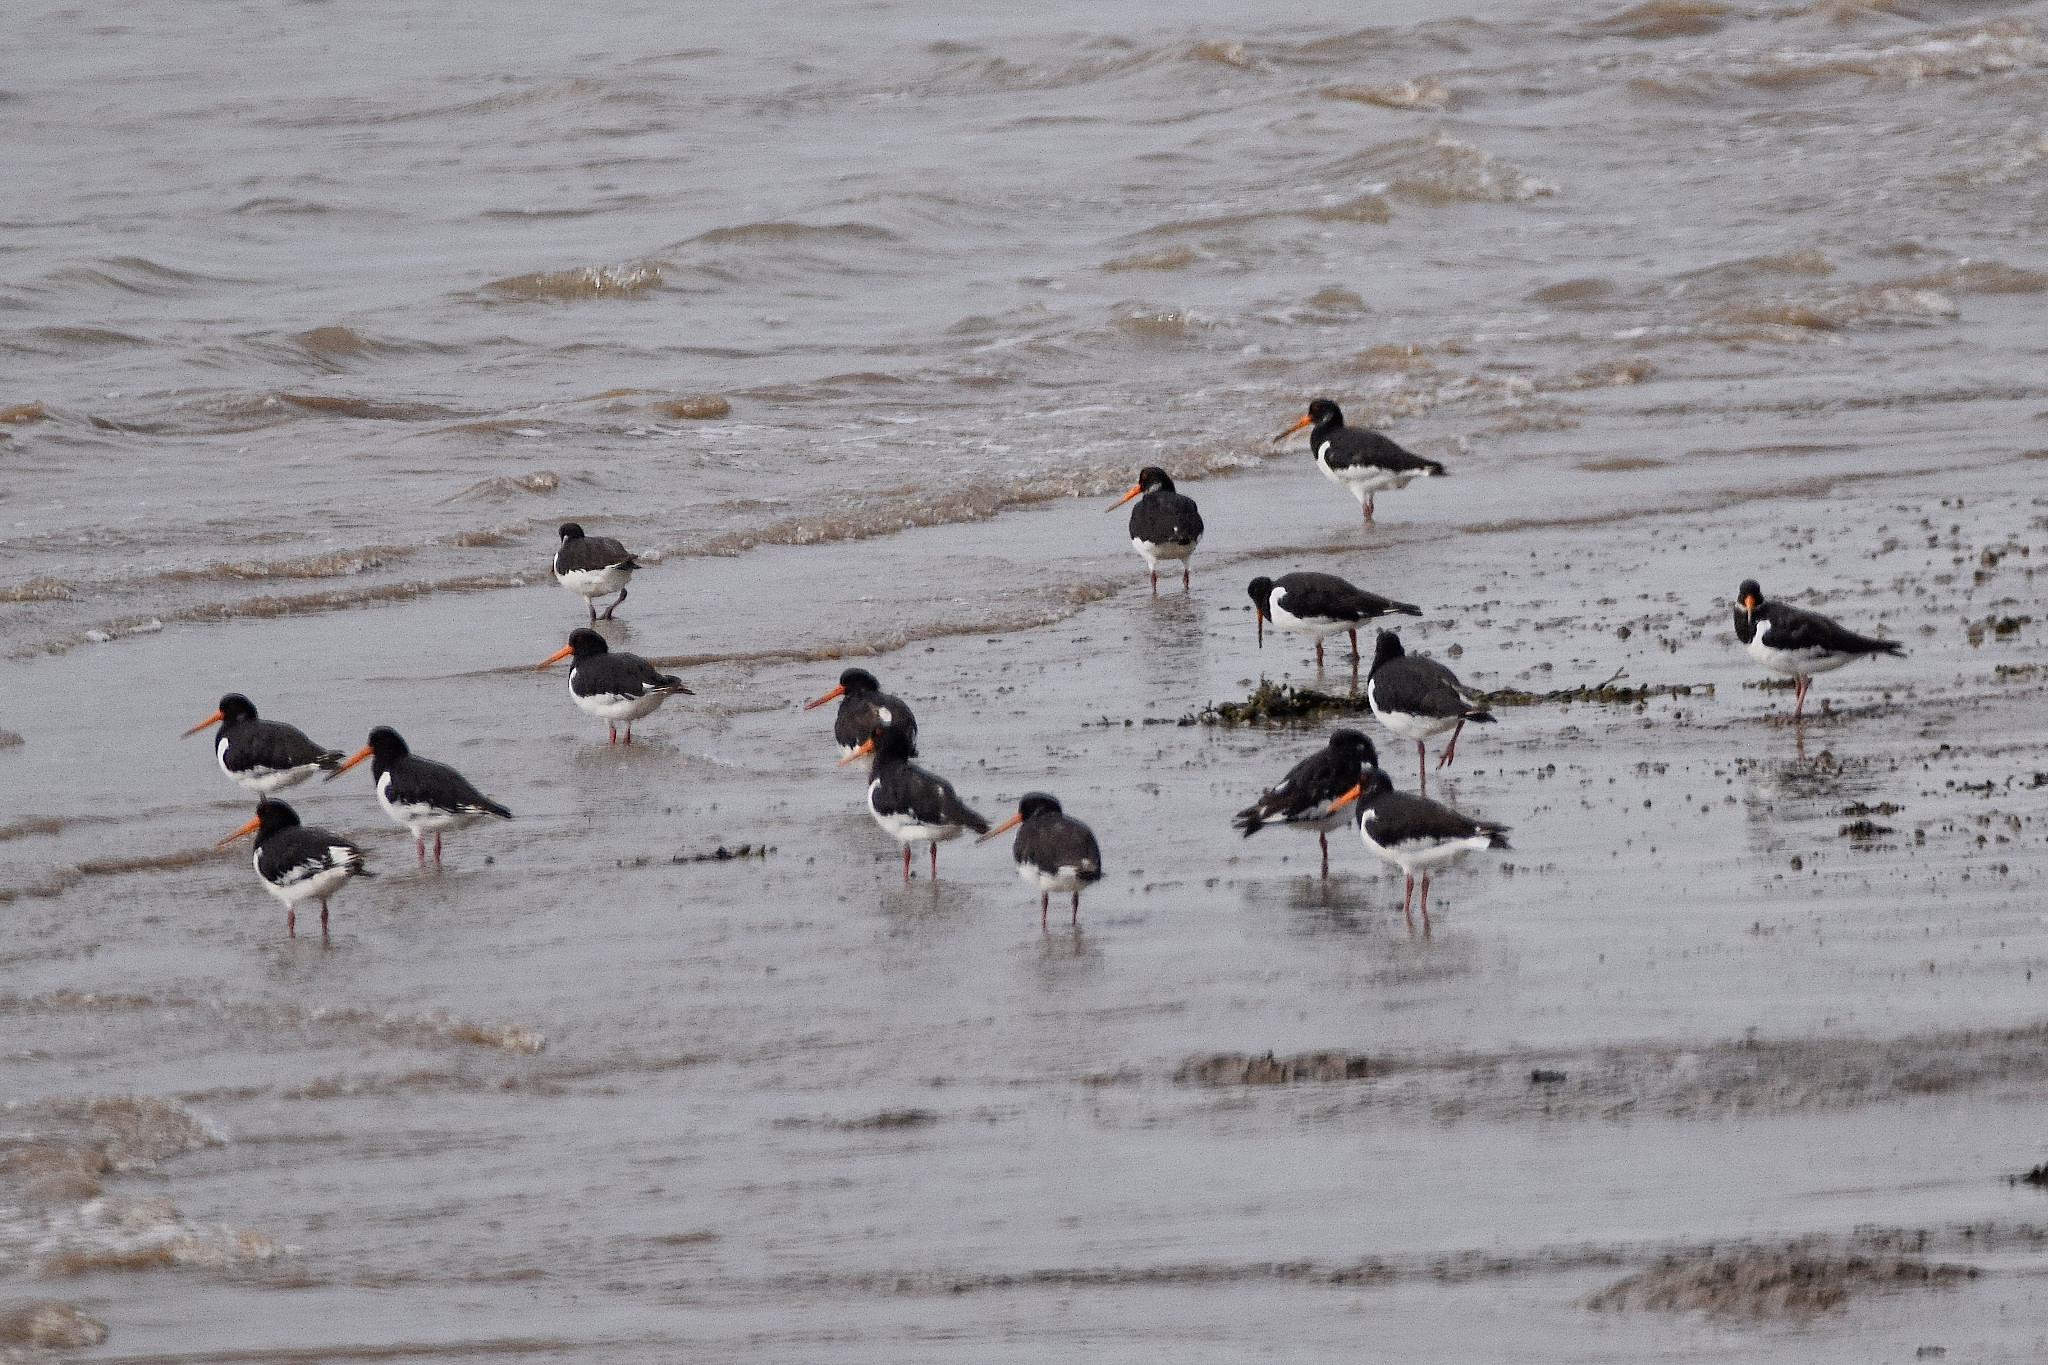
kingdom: Animalia
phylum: Chordata
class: Aves
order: Charadriiformes
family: Haematopodidae
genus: Haematopus
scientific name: Haematopus ostralegus
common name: Eurasian oystercatcher
